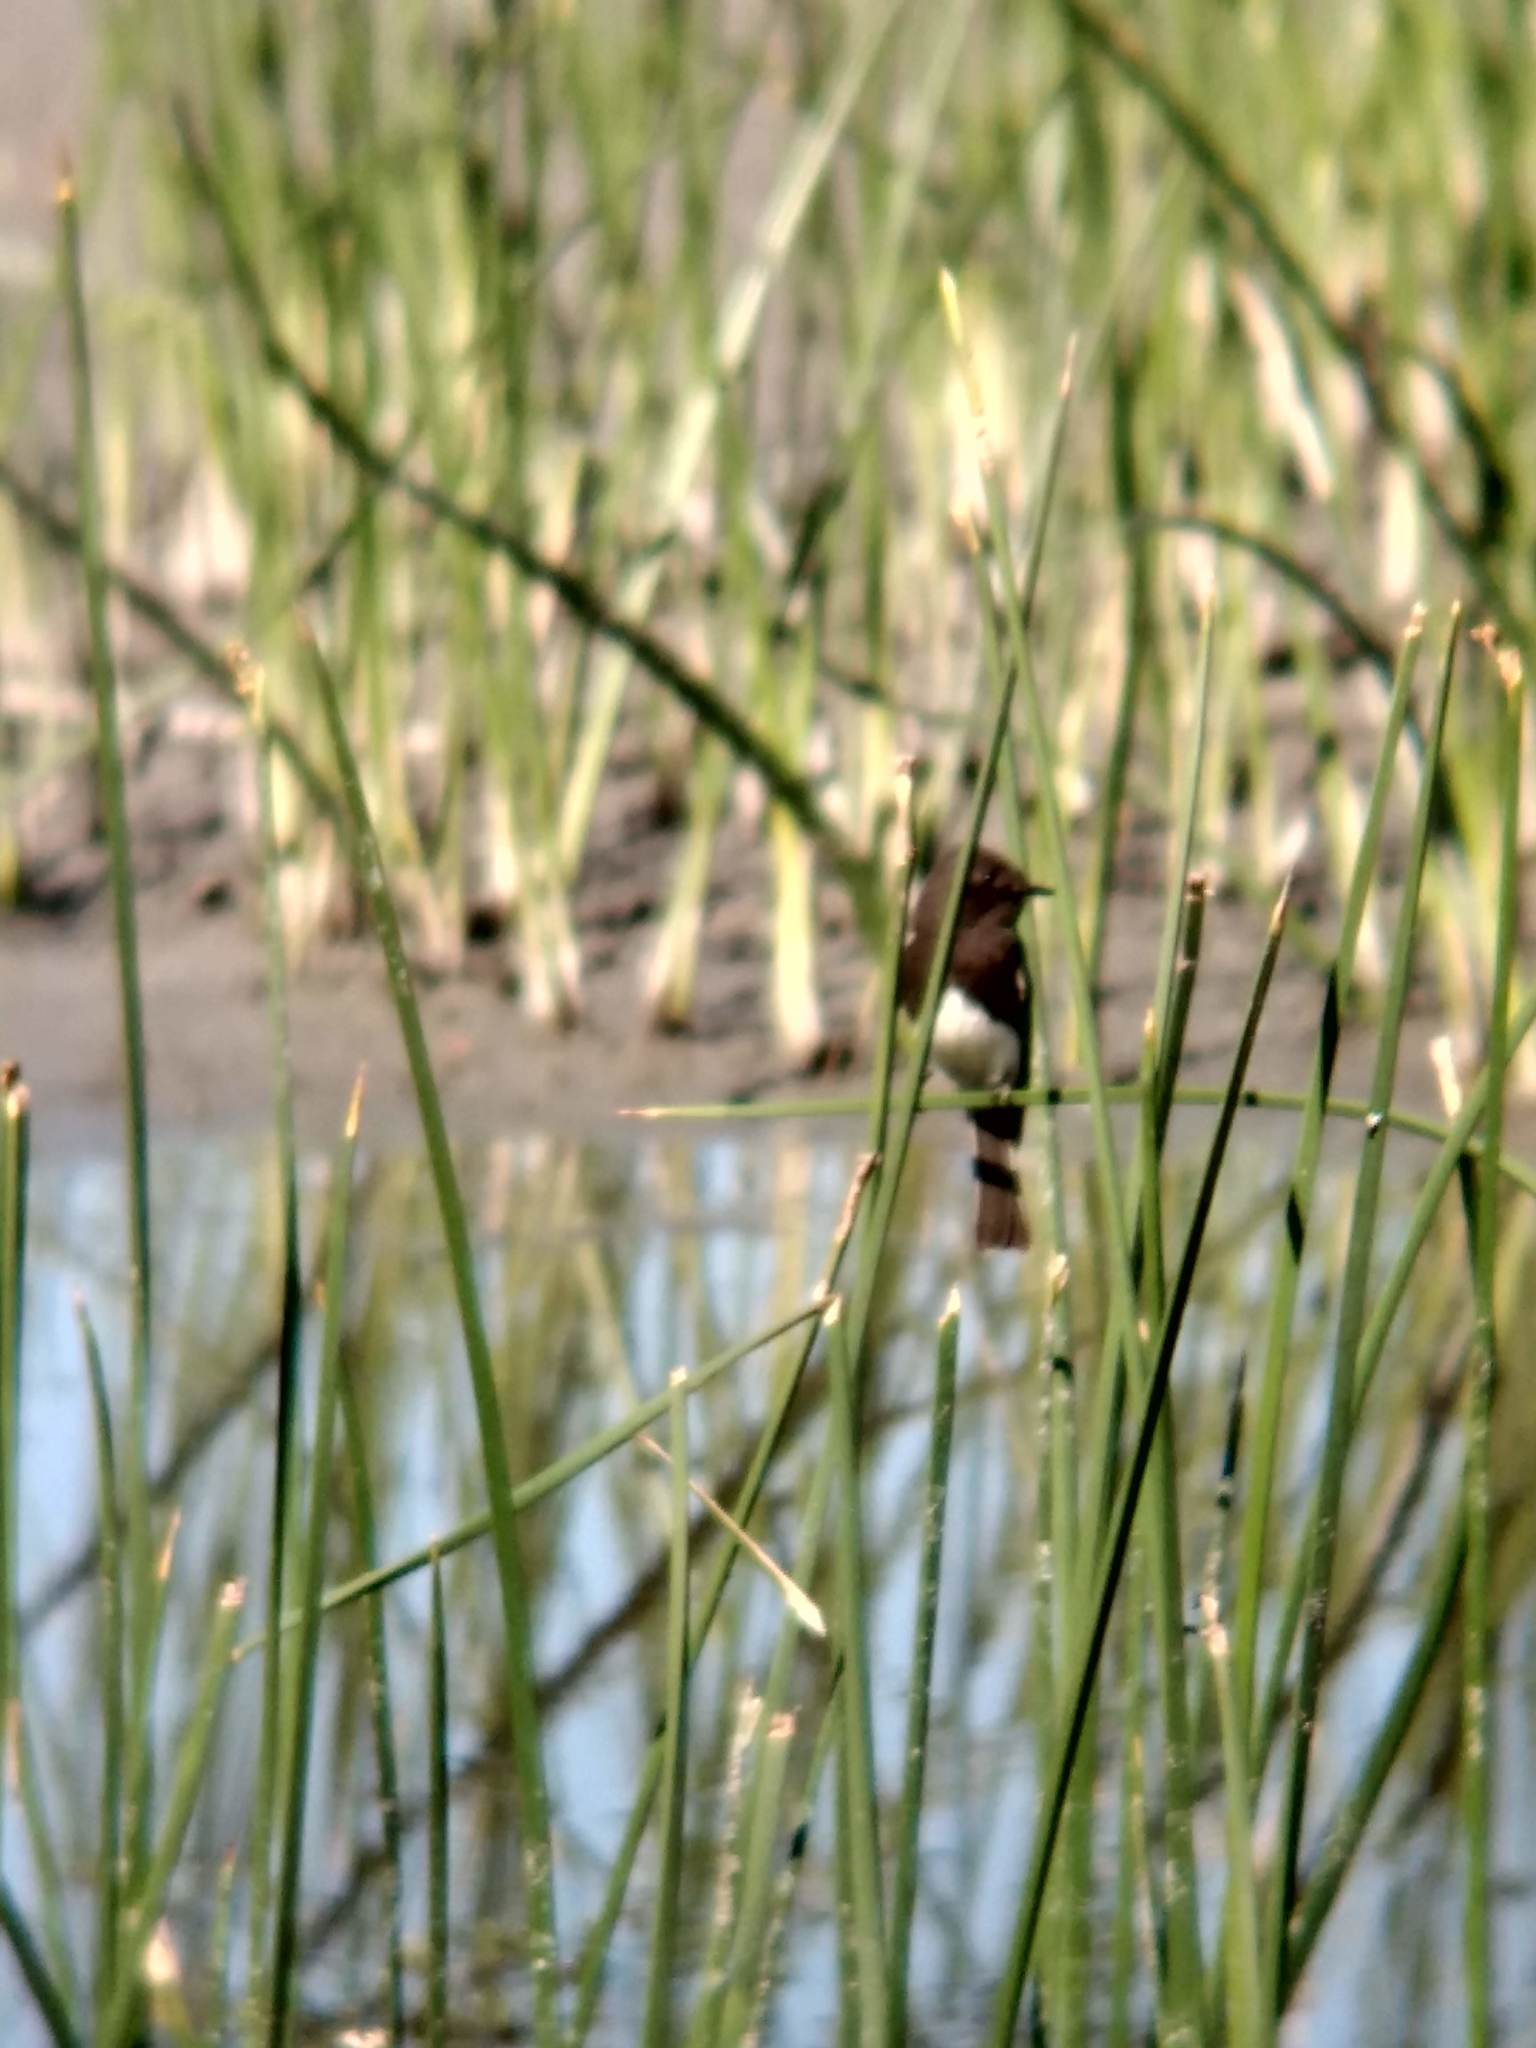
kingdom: Animalia
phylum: Chordata
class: Aves
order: Passeriformes
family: Tyrannidae
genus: Sayornis
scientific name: Sayornis nigricans
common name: Black phoebe
